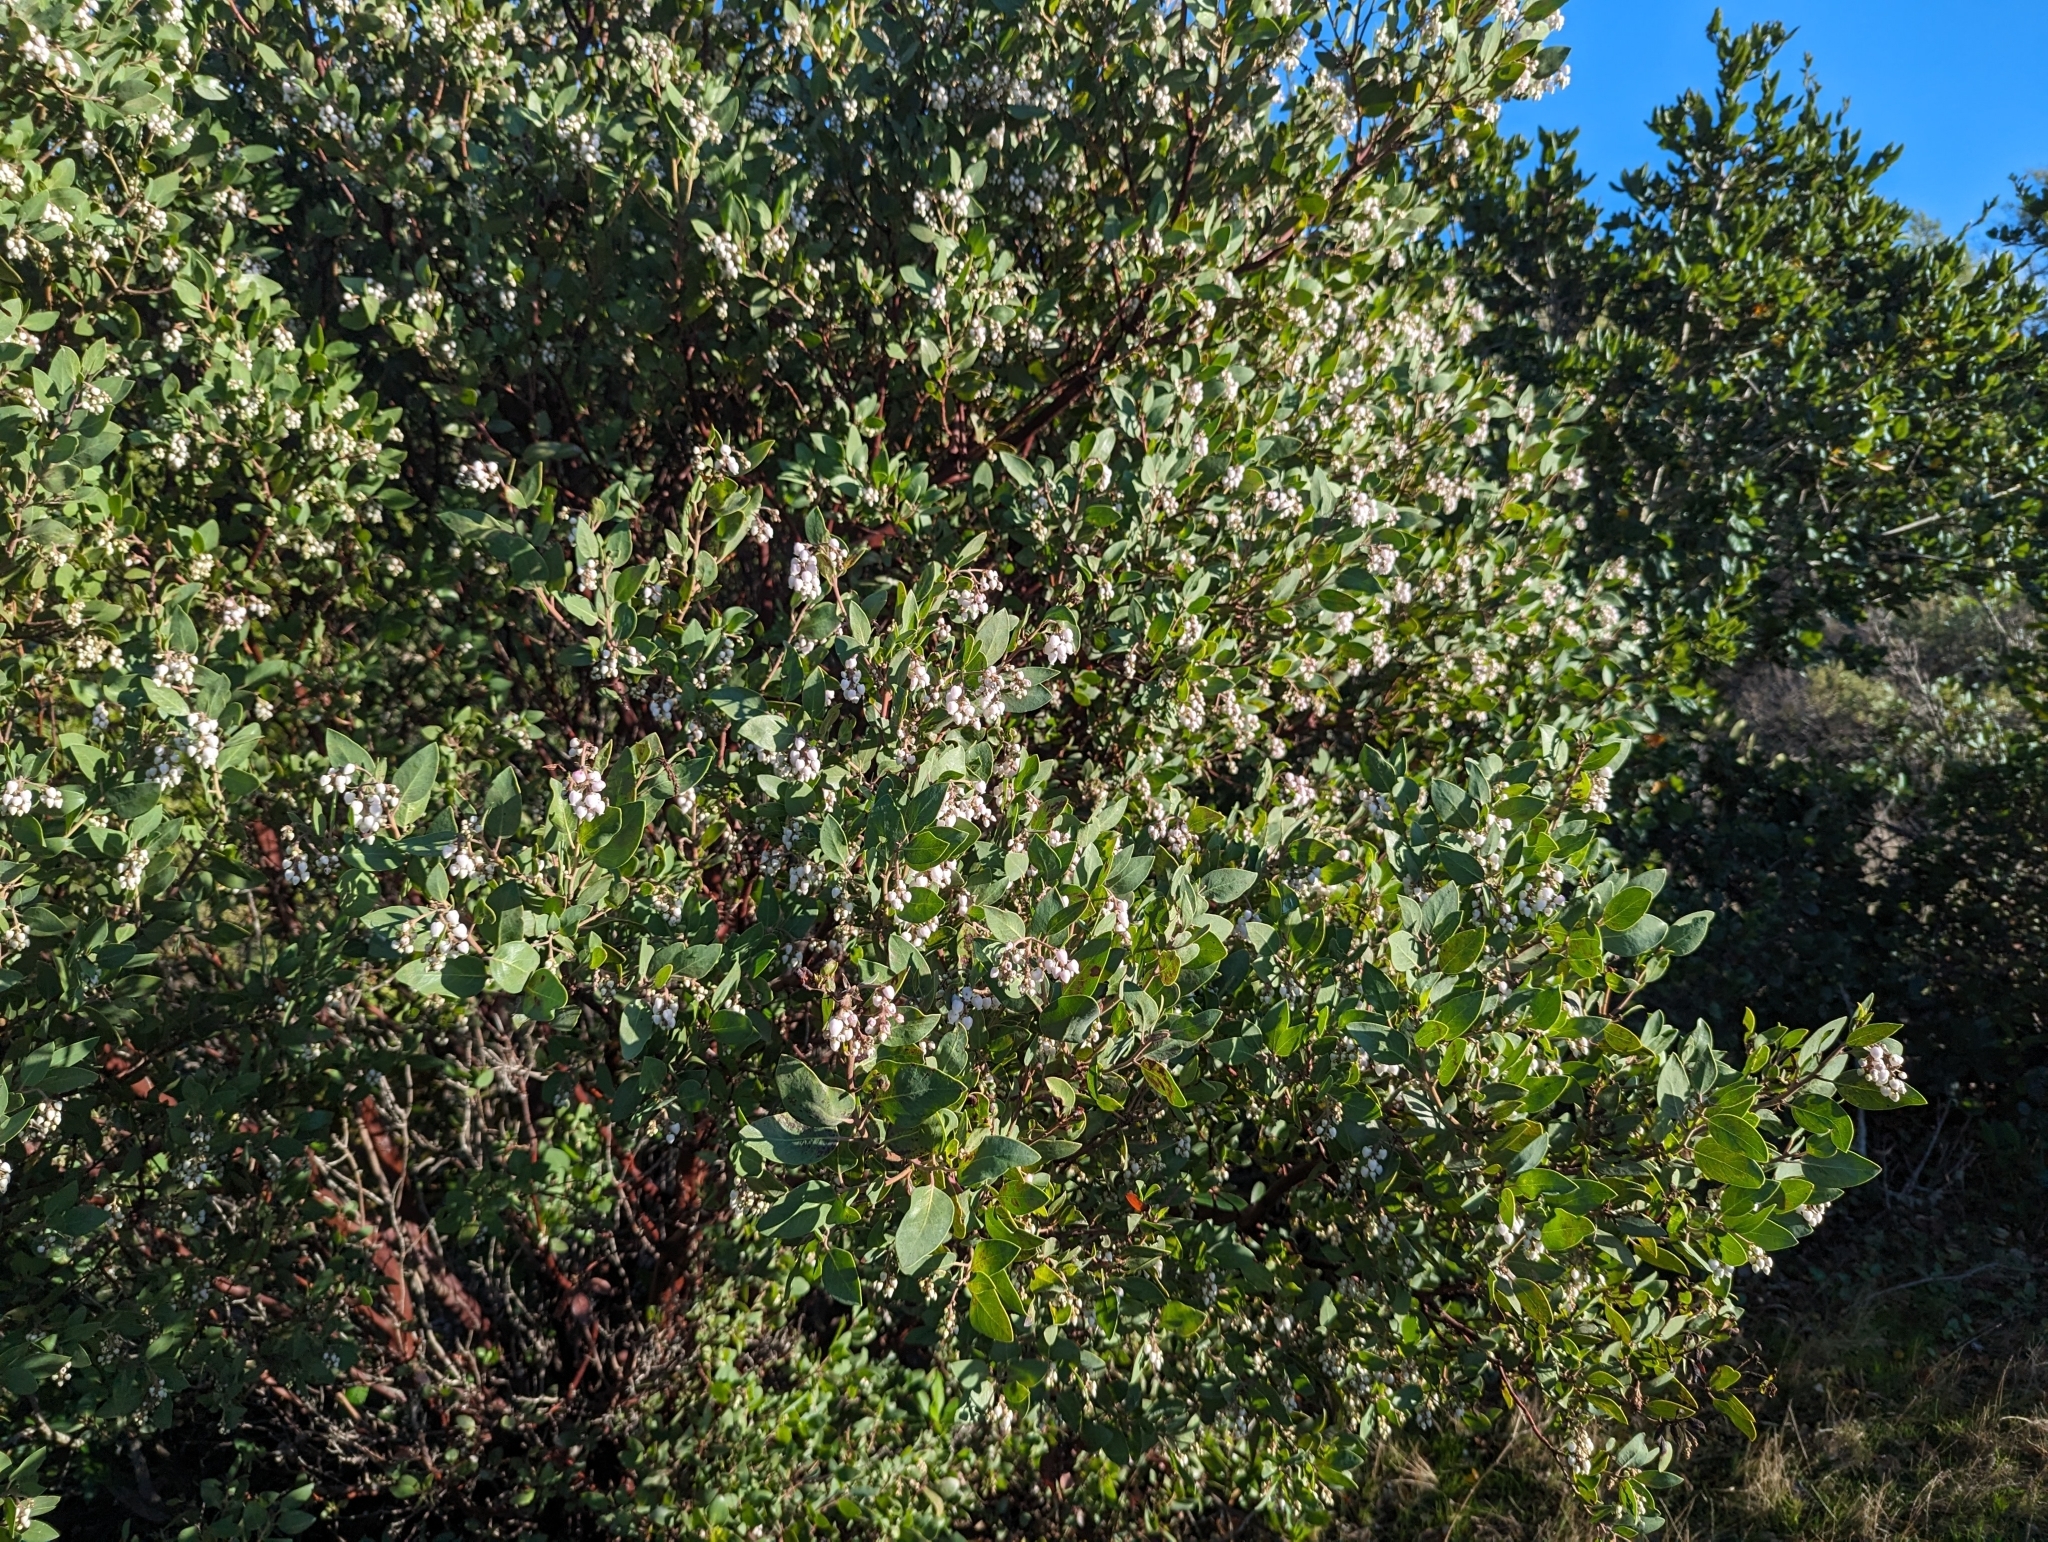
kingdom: Plantae
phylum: Tracheophyta
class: Magnoliopsida
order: Ericales
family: Ericaceae
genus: Arctostaphylos
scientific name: Arctostaphylos manzanita
